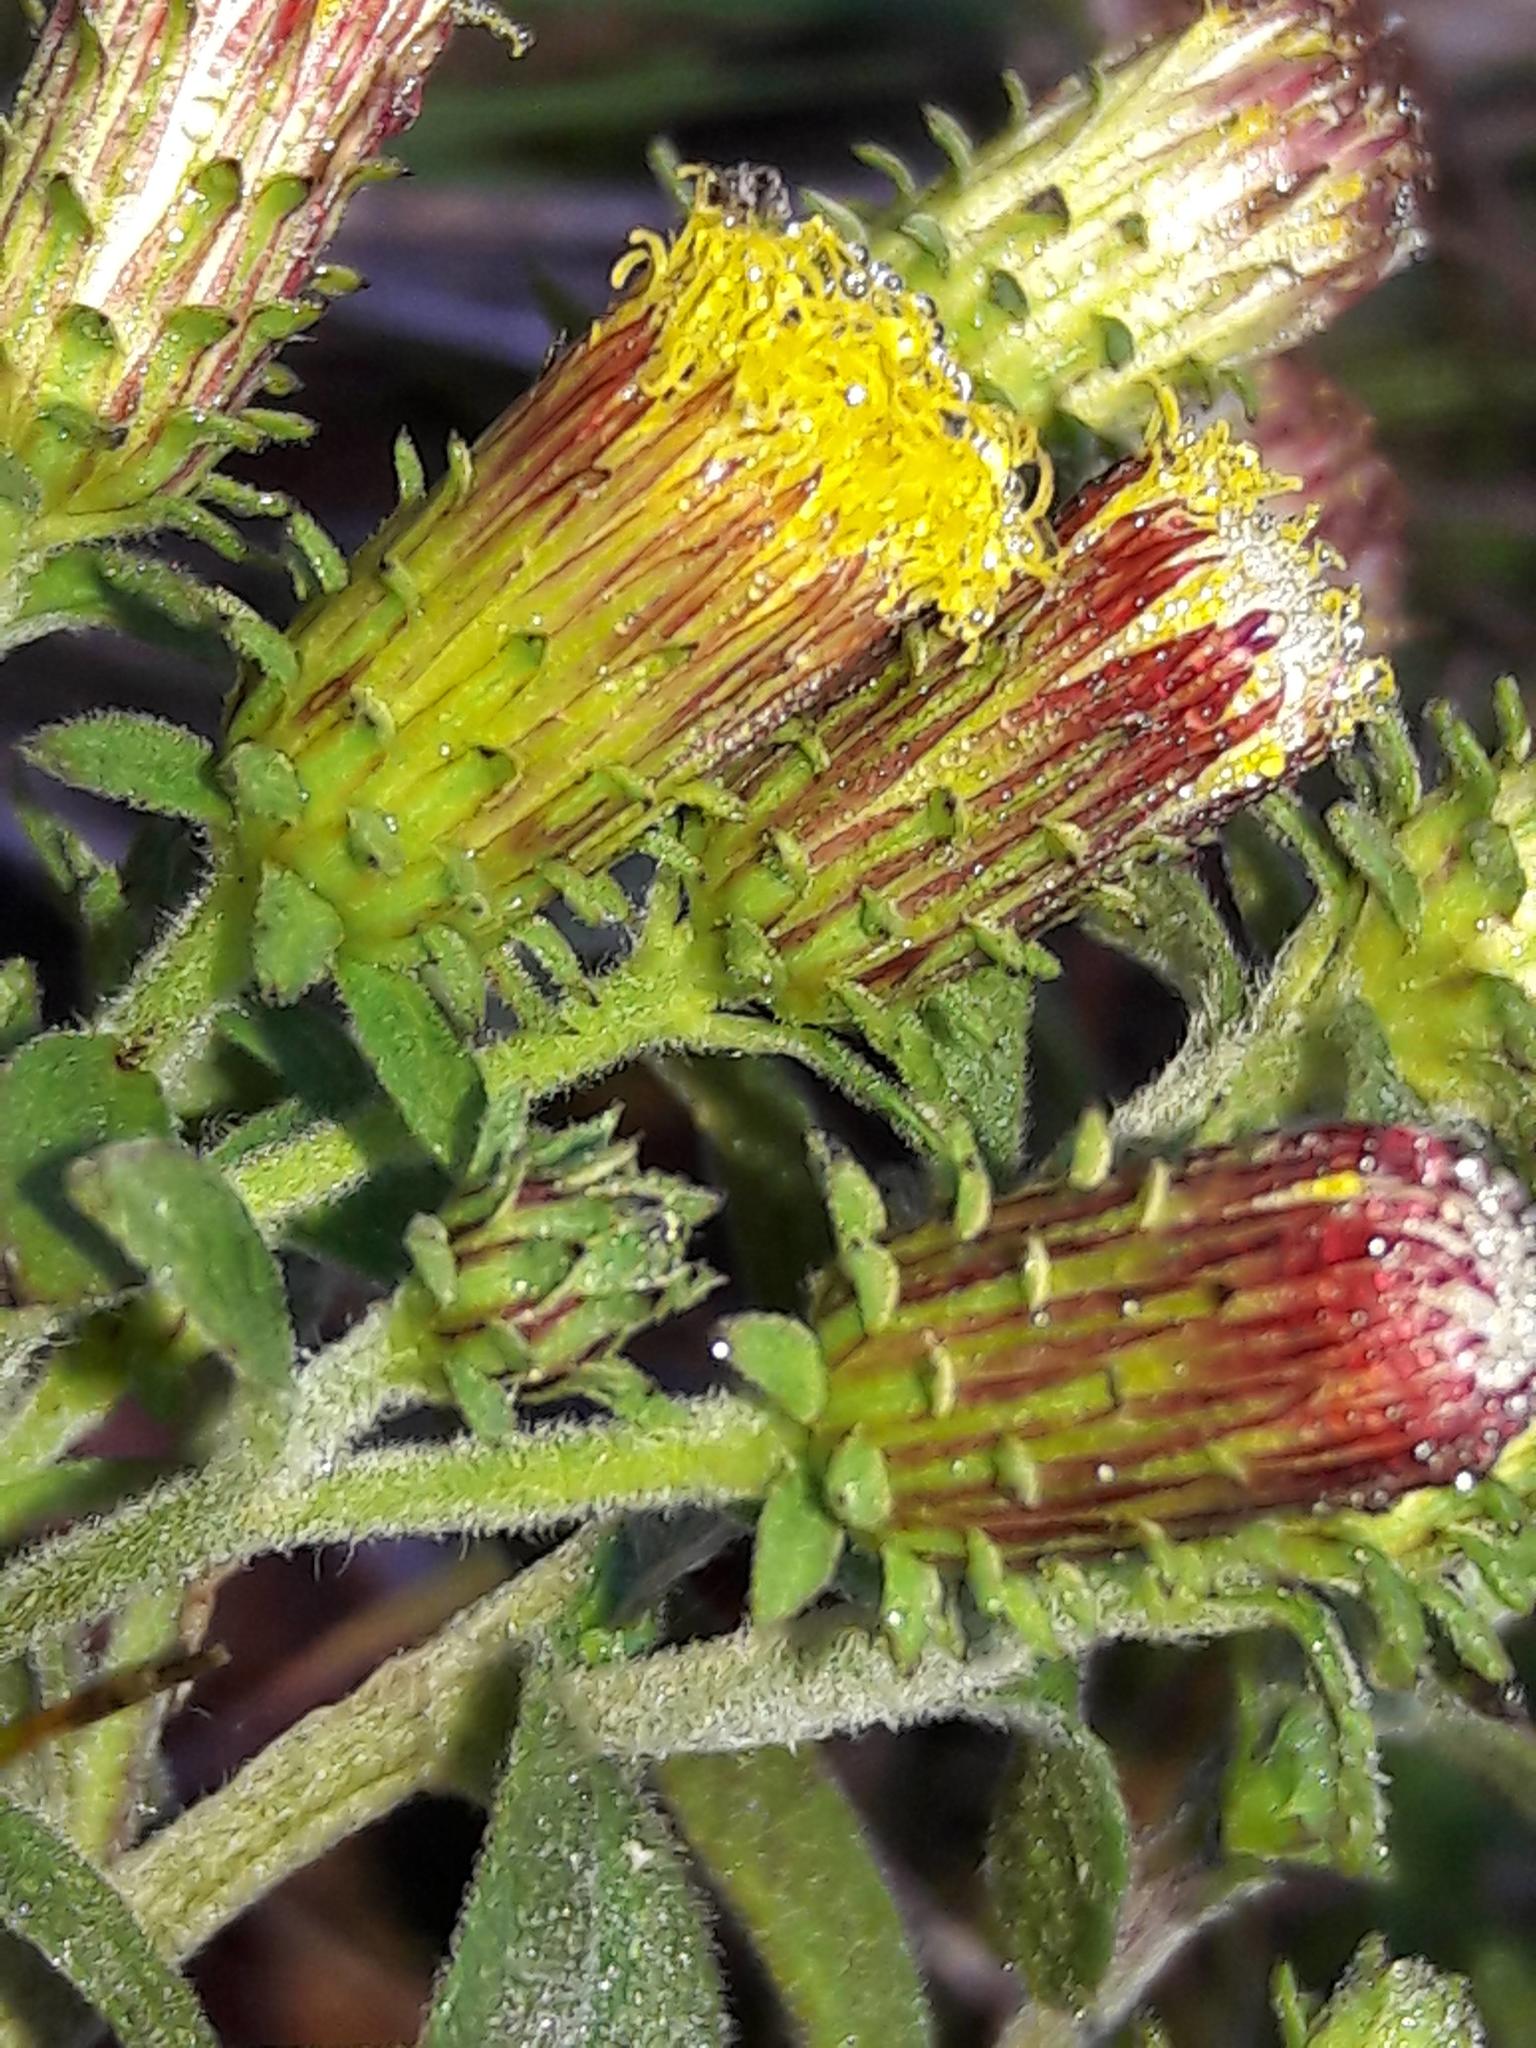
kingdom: Plantae
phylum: Tracheophyta
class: Magnoliopsida
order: Asterales
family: Asteraceae
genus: Pentanema
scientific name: Pentanema squarrosum
